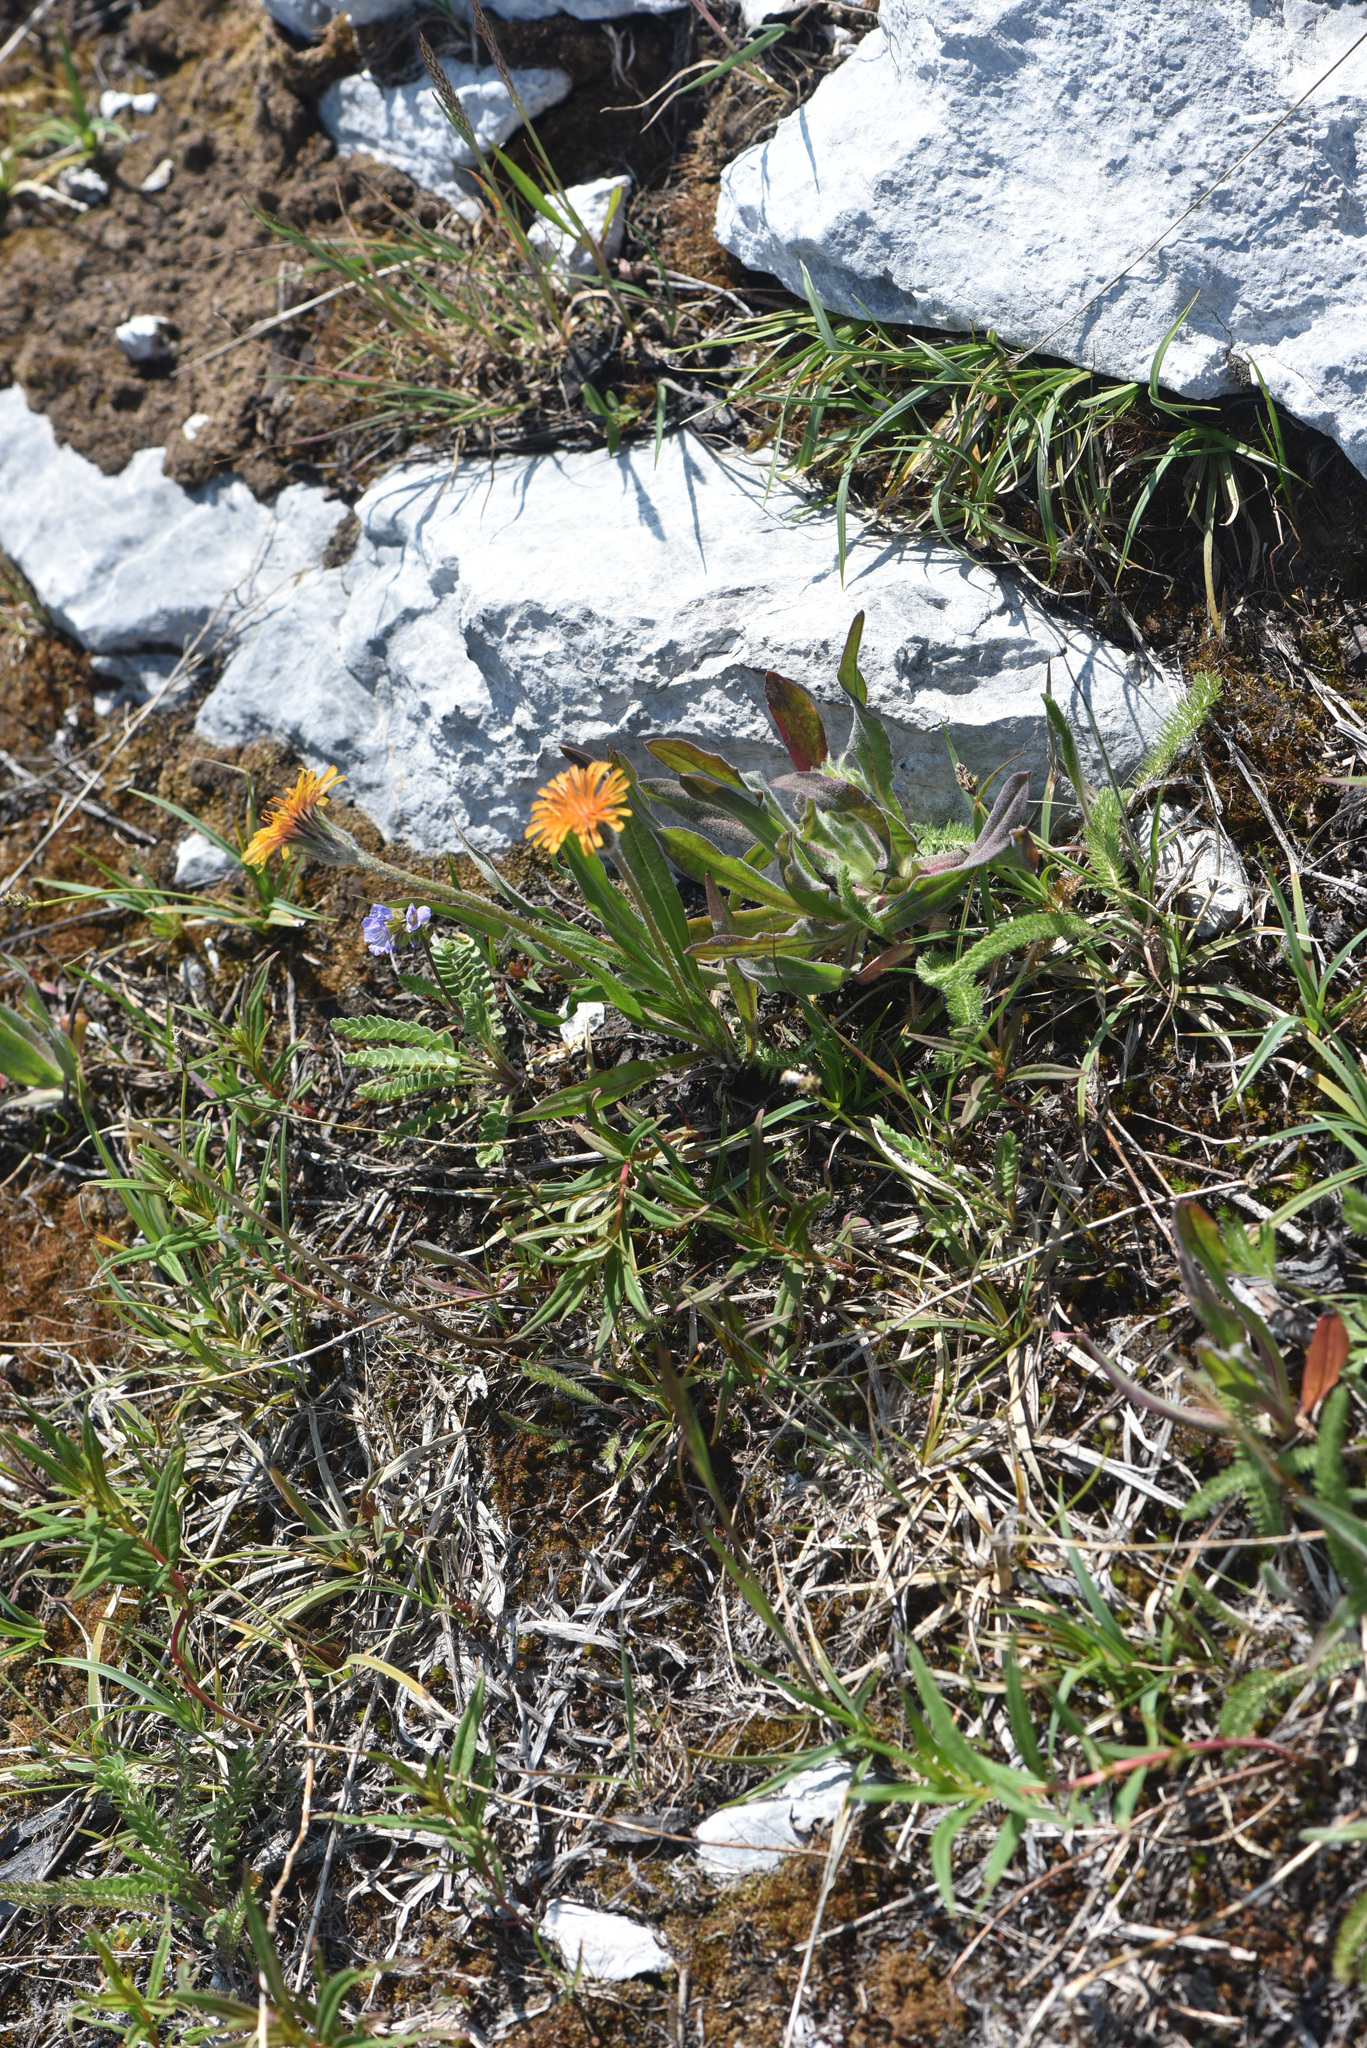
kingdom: Plantae
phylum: Tracheophyta
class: Magnoliopsida
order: Asterales
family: Asteraceae
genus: Agoseris
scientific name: Agoseris aurantiaca
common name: Mountain agoseris
